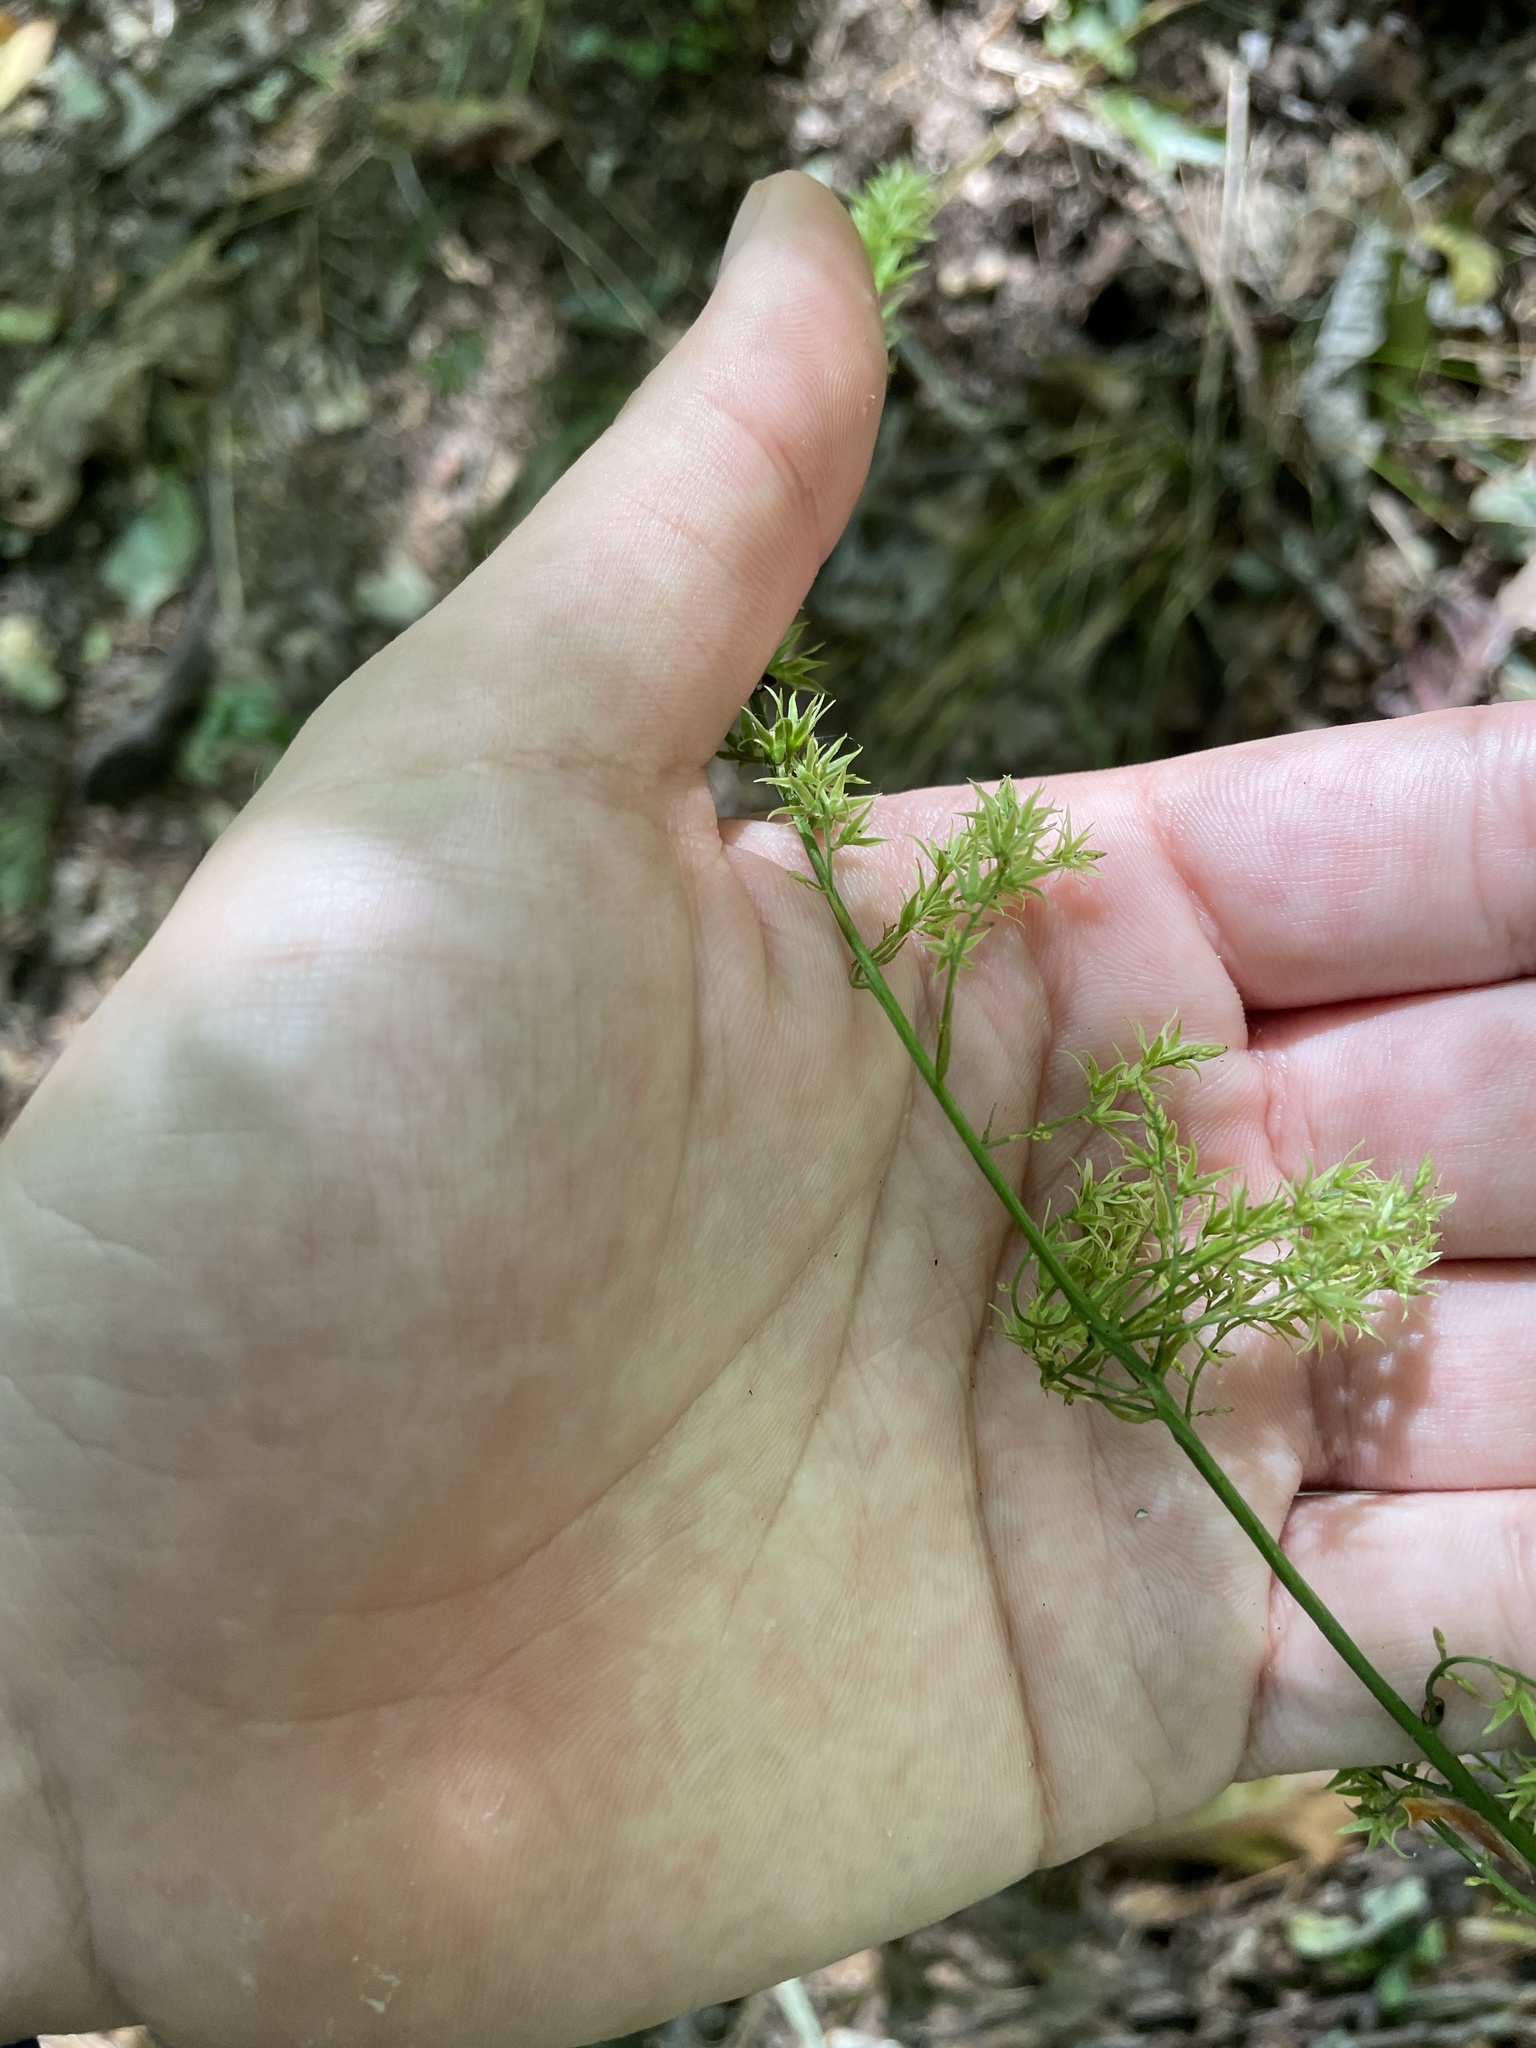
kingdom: Plantae
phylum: Tracheophyta
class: Liliopsida
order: Liliales
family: Melanthiaceae
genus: Stenanthium
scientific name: Stenanthium gramineum
